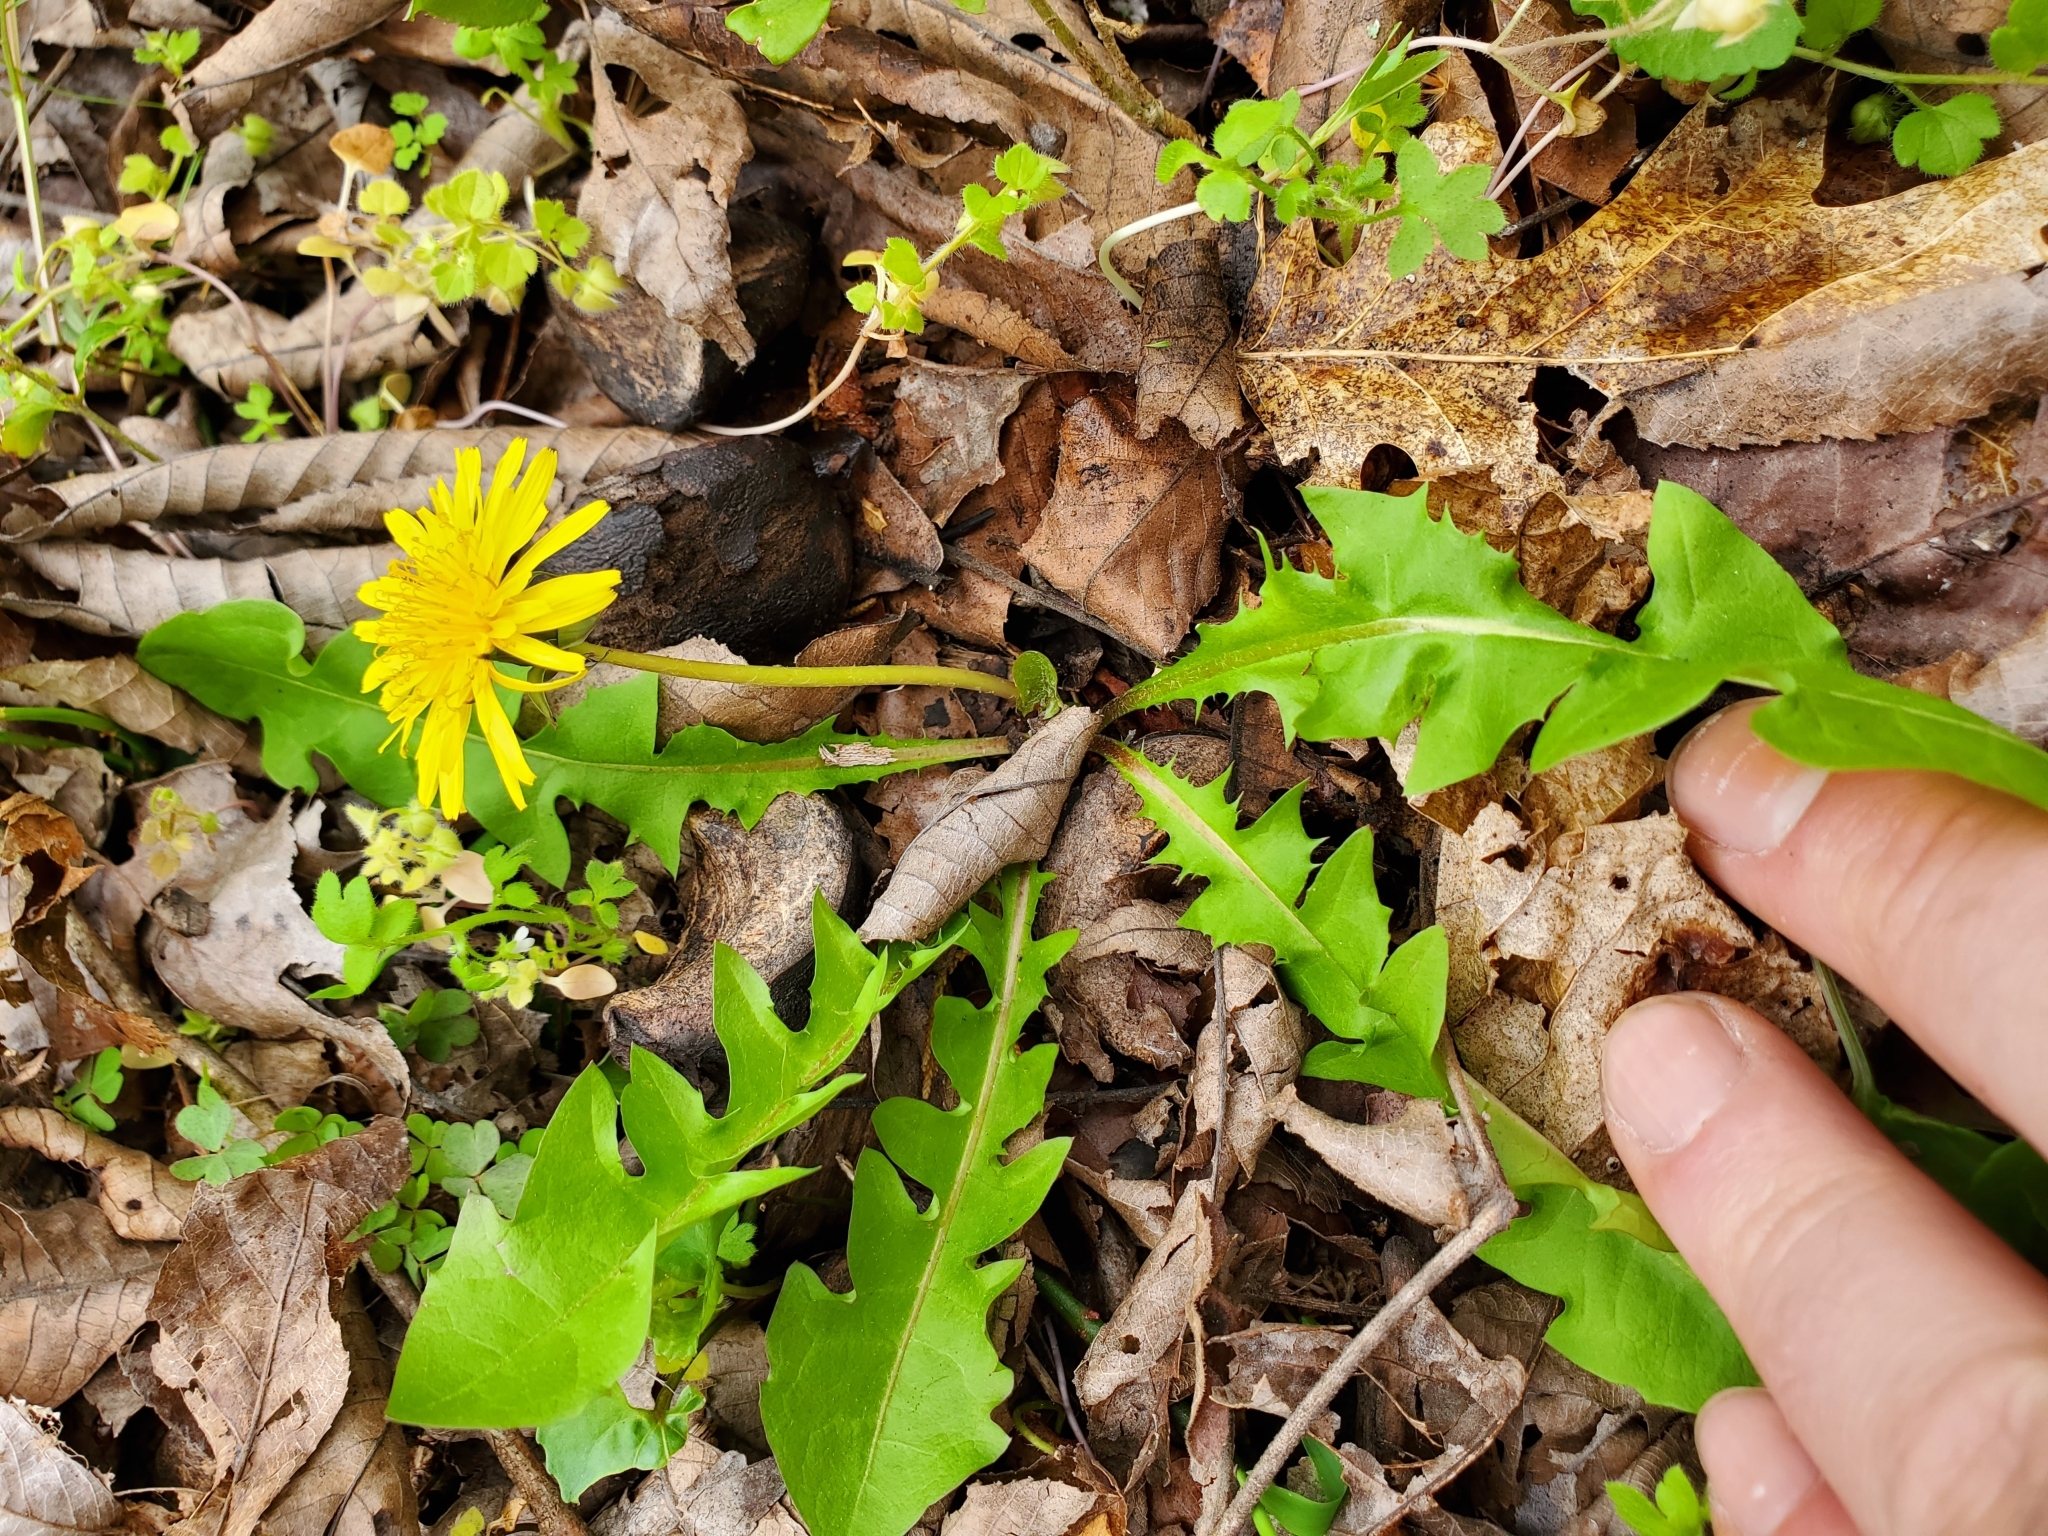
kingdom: Plantae
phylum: Tracheophyta
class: Magnoliopsida
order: Asterales
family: Asteraceae
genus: Taraxacum
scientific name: Taraxacum officinale
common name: Common dandelion
